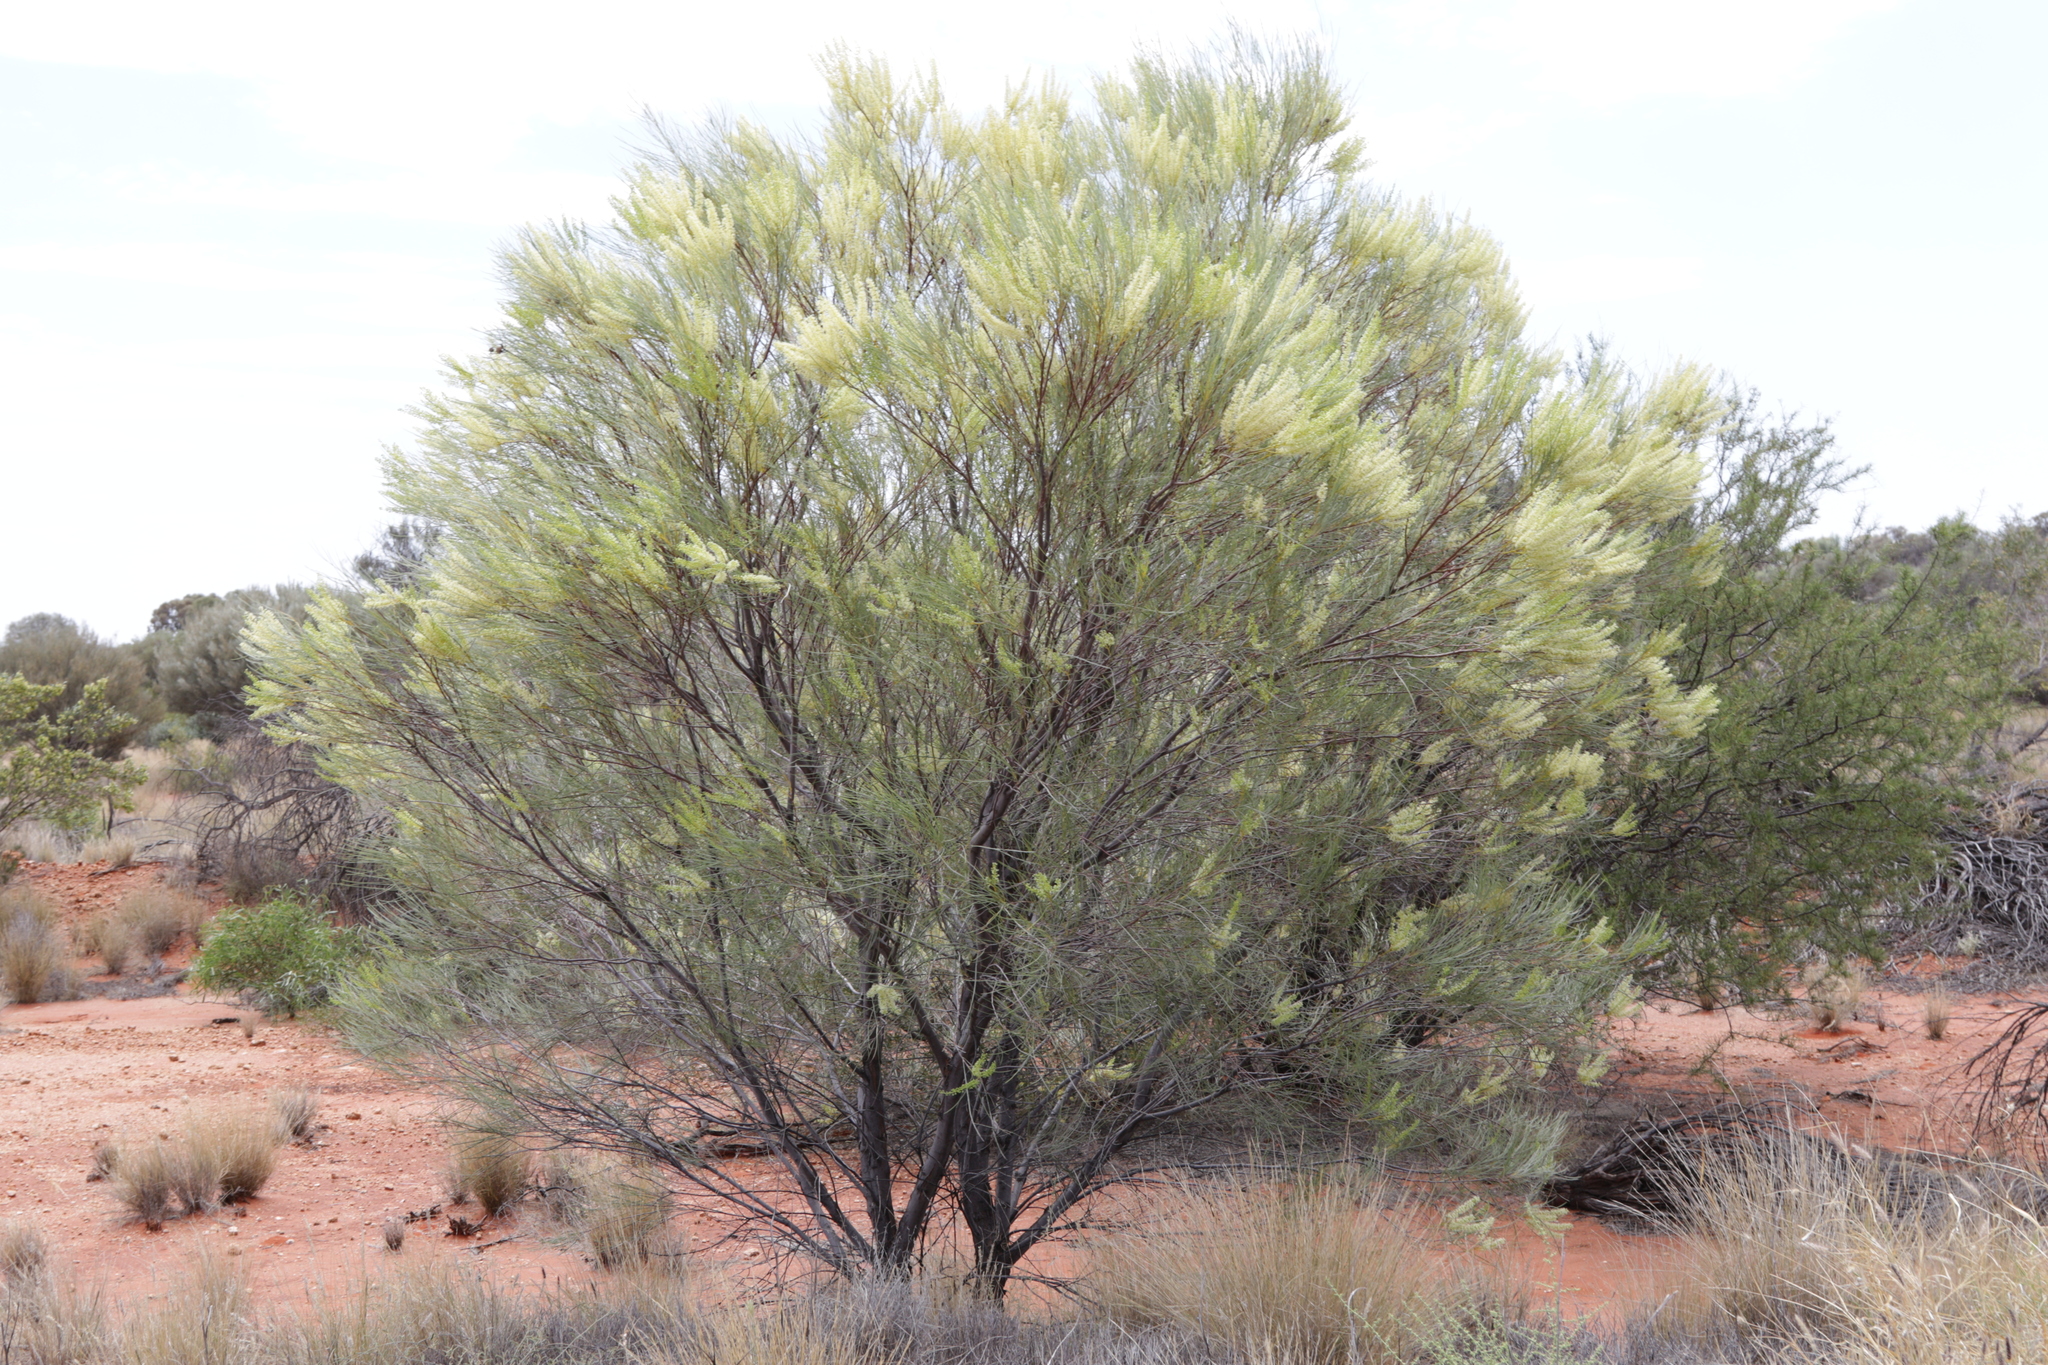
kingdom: Plantae
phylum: Tracheophyta
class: Magnoliopsida
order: Proteales
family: Proteaceae
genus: Grevillea
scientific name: Grevillea stenobotrya
